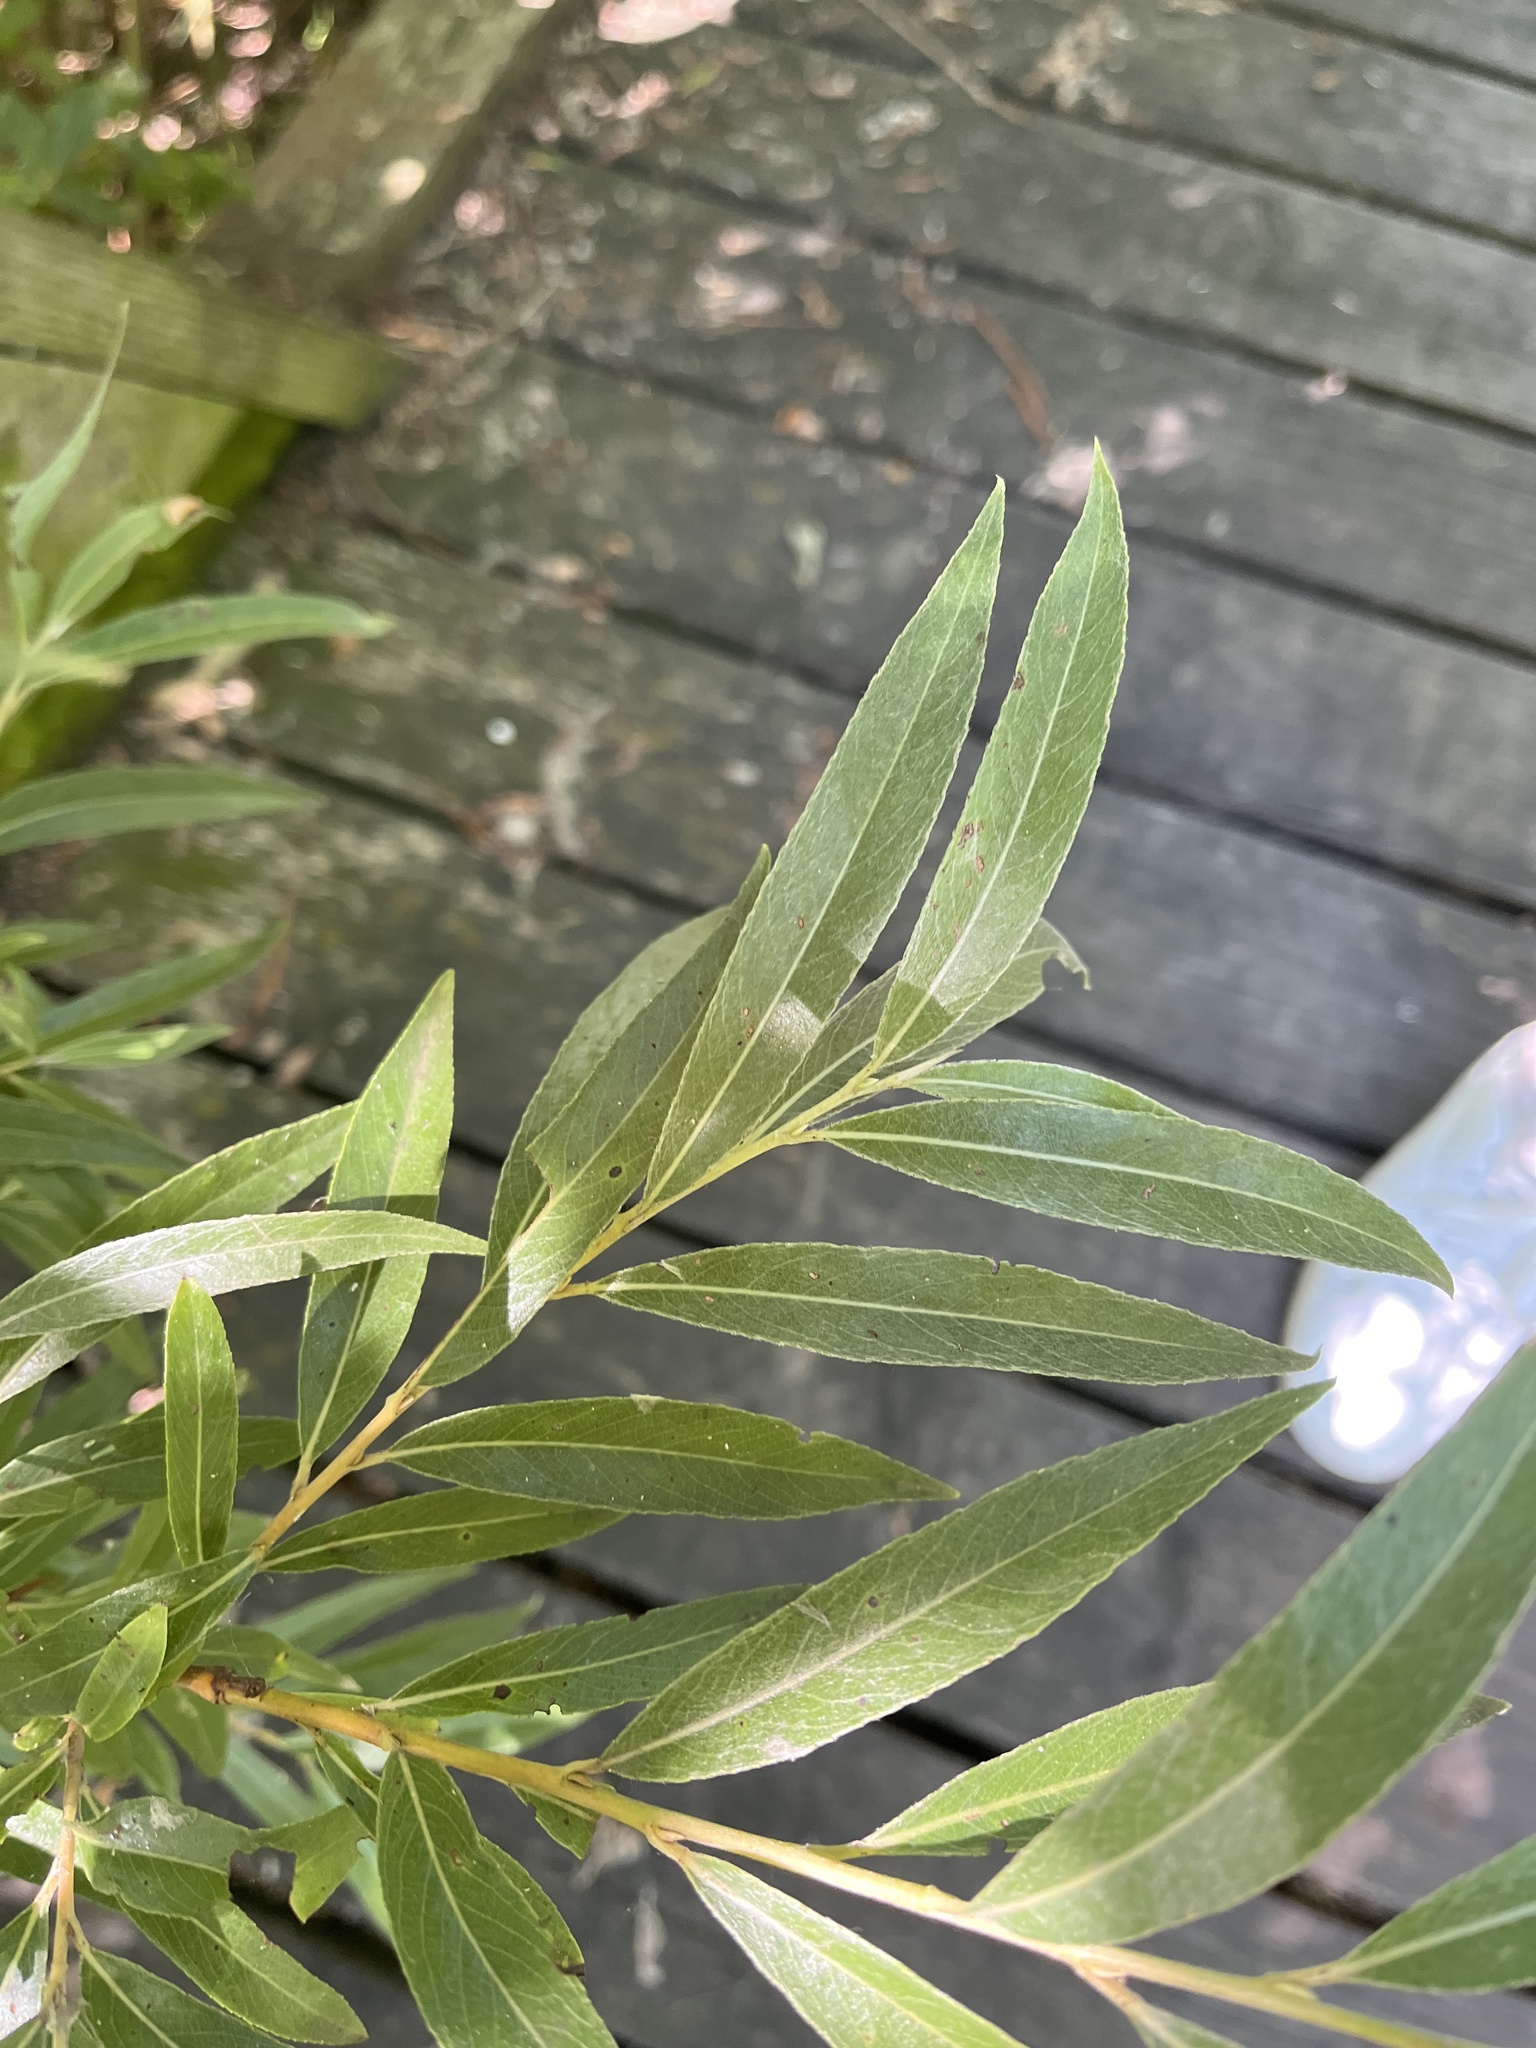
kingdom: Plantae
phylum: Tracheophyta
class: Magnoliopsida
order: Malpighiales
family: Salicaceae
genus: Salix
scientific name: Salix alba
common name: White willow
